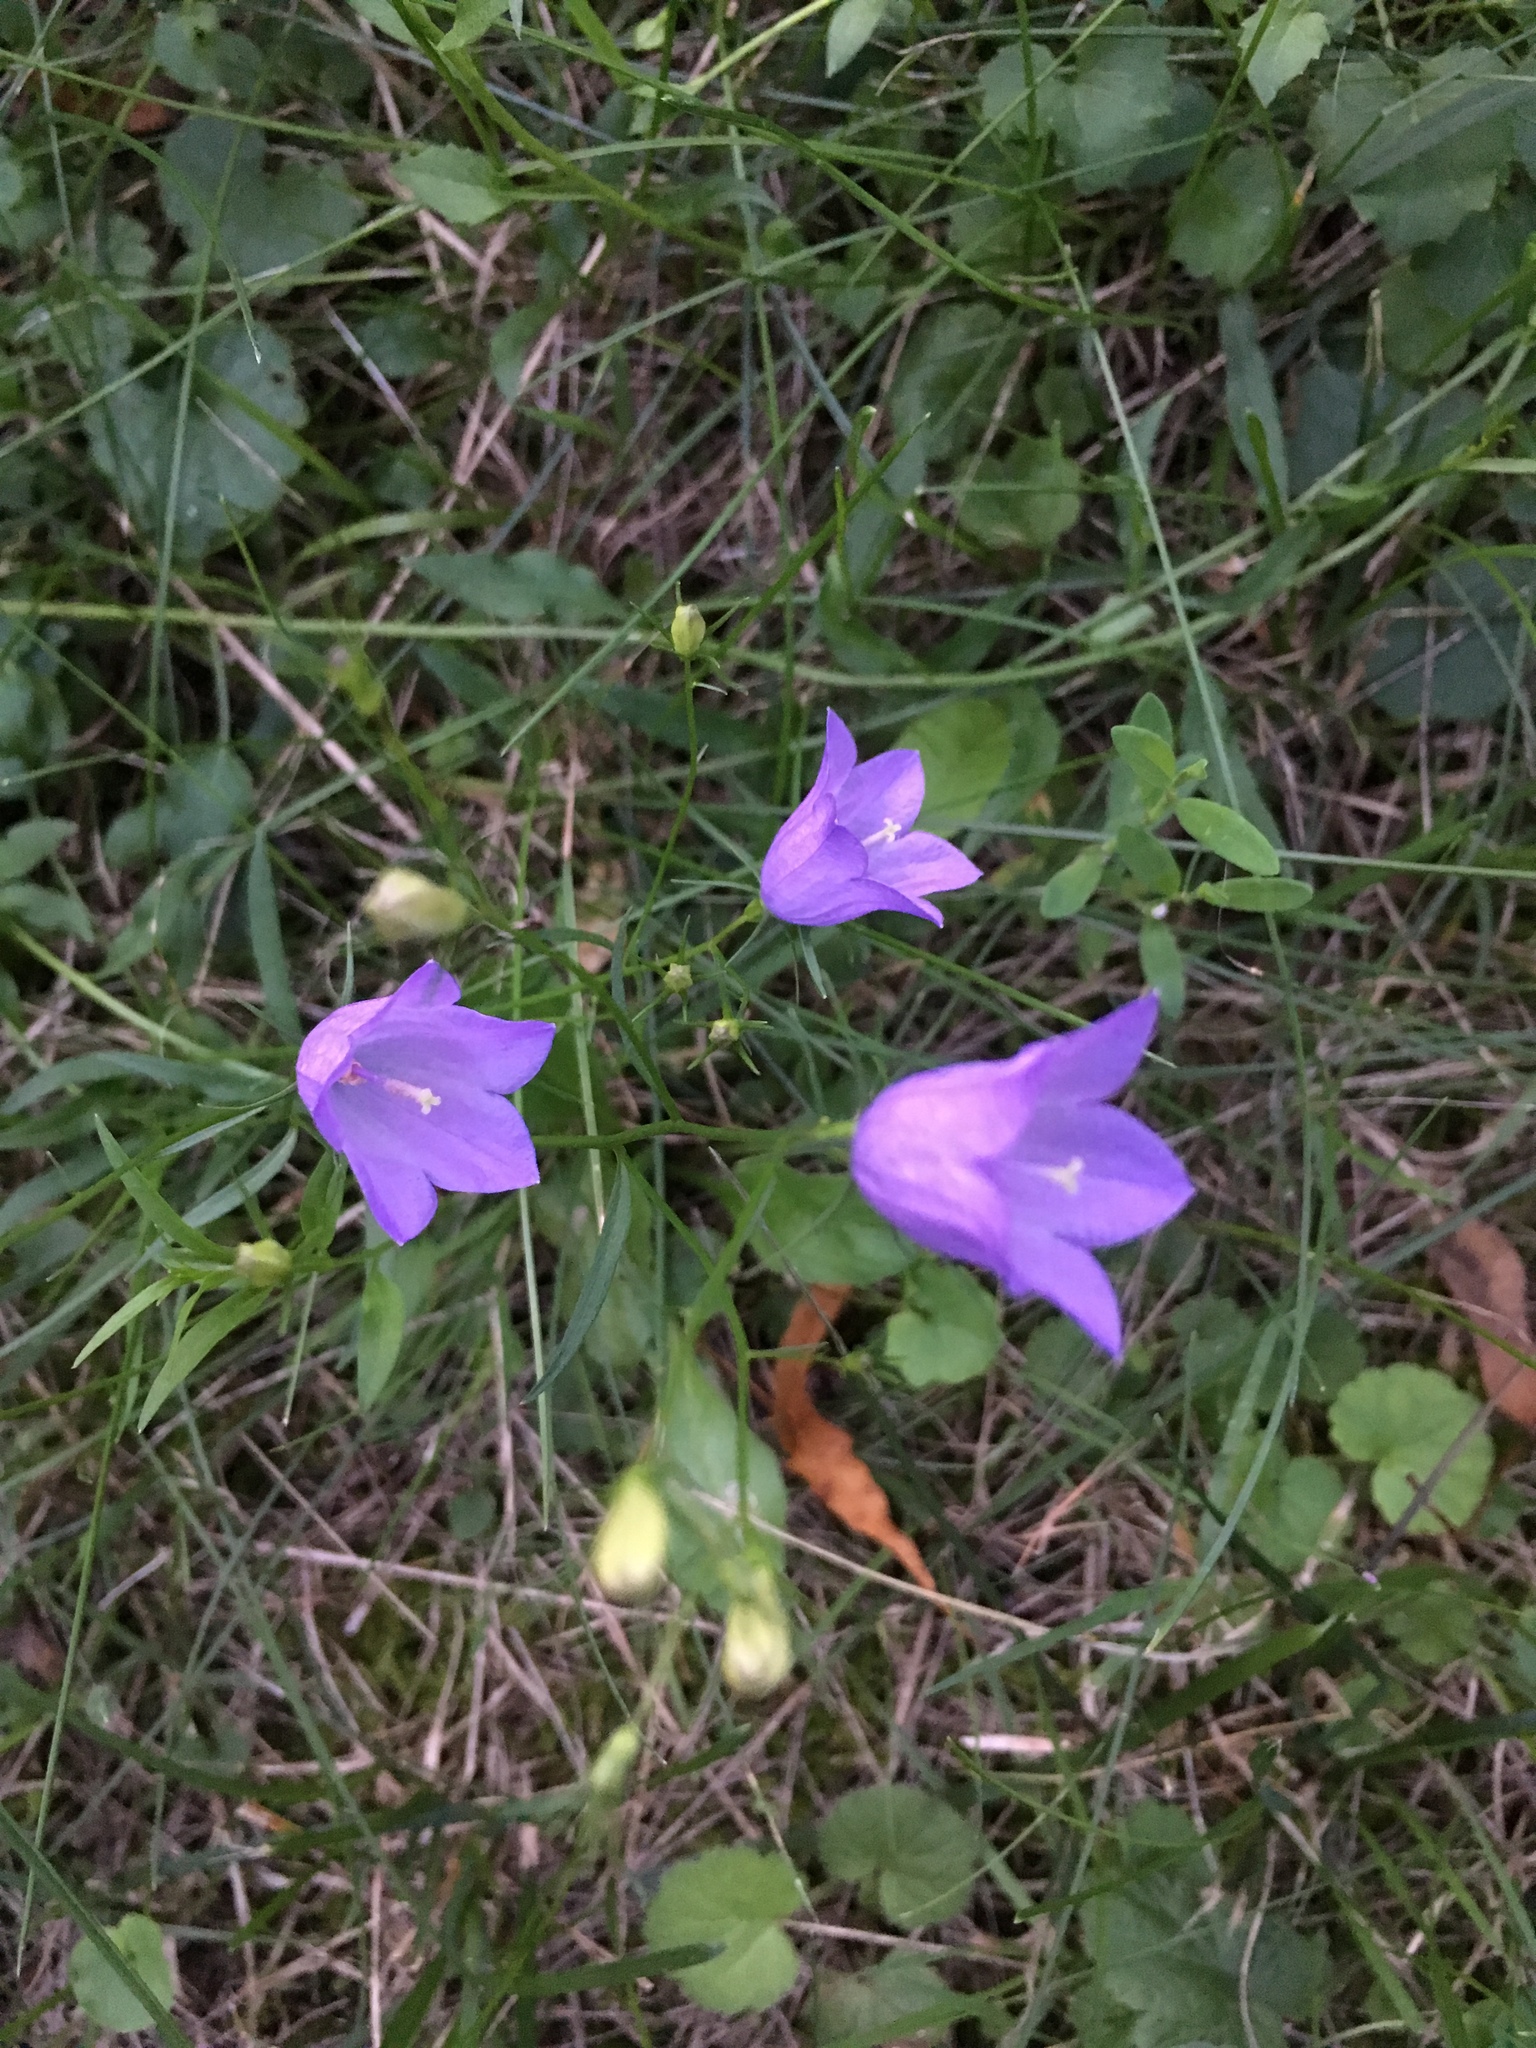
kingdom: Plantae
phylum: Tracheophyta
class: Magnoliopsida
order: Asterales
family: Campanulaceae
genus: Campanula
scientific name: Campanula rotundifolia
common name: Harebell
